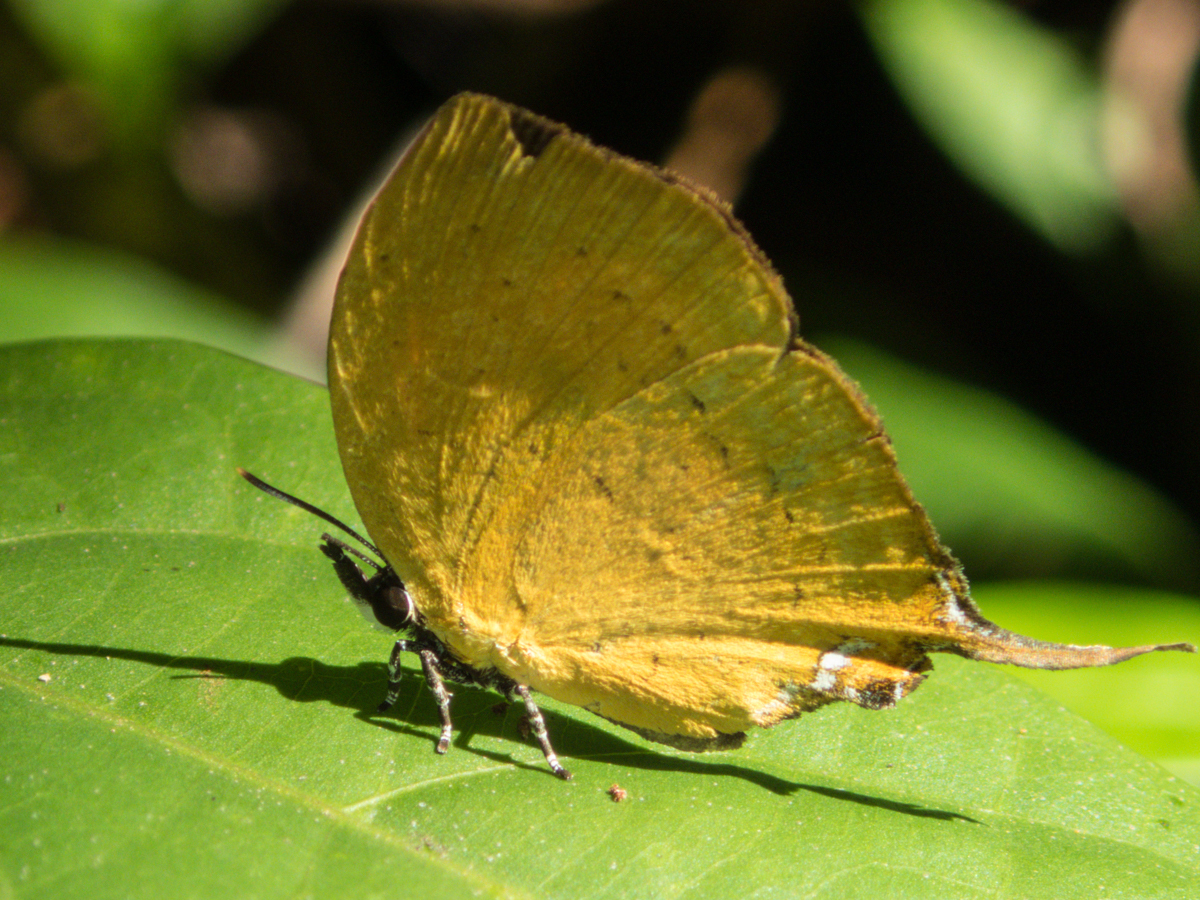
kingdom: Animalia
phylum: Arthropoda
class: Insecta
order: Lepidoptera
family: Lycaenidae
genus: Yasoda
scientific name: Yasoda tripunctata
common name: Branded yamfly
